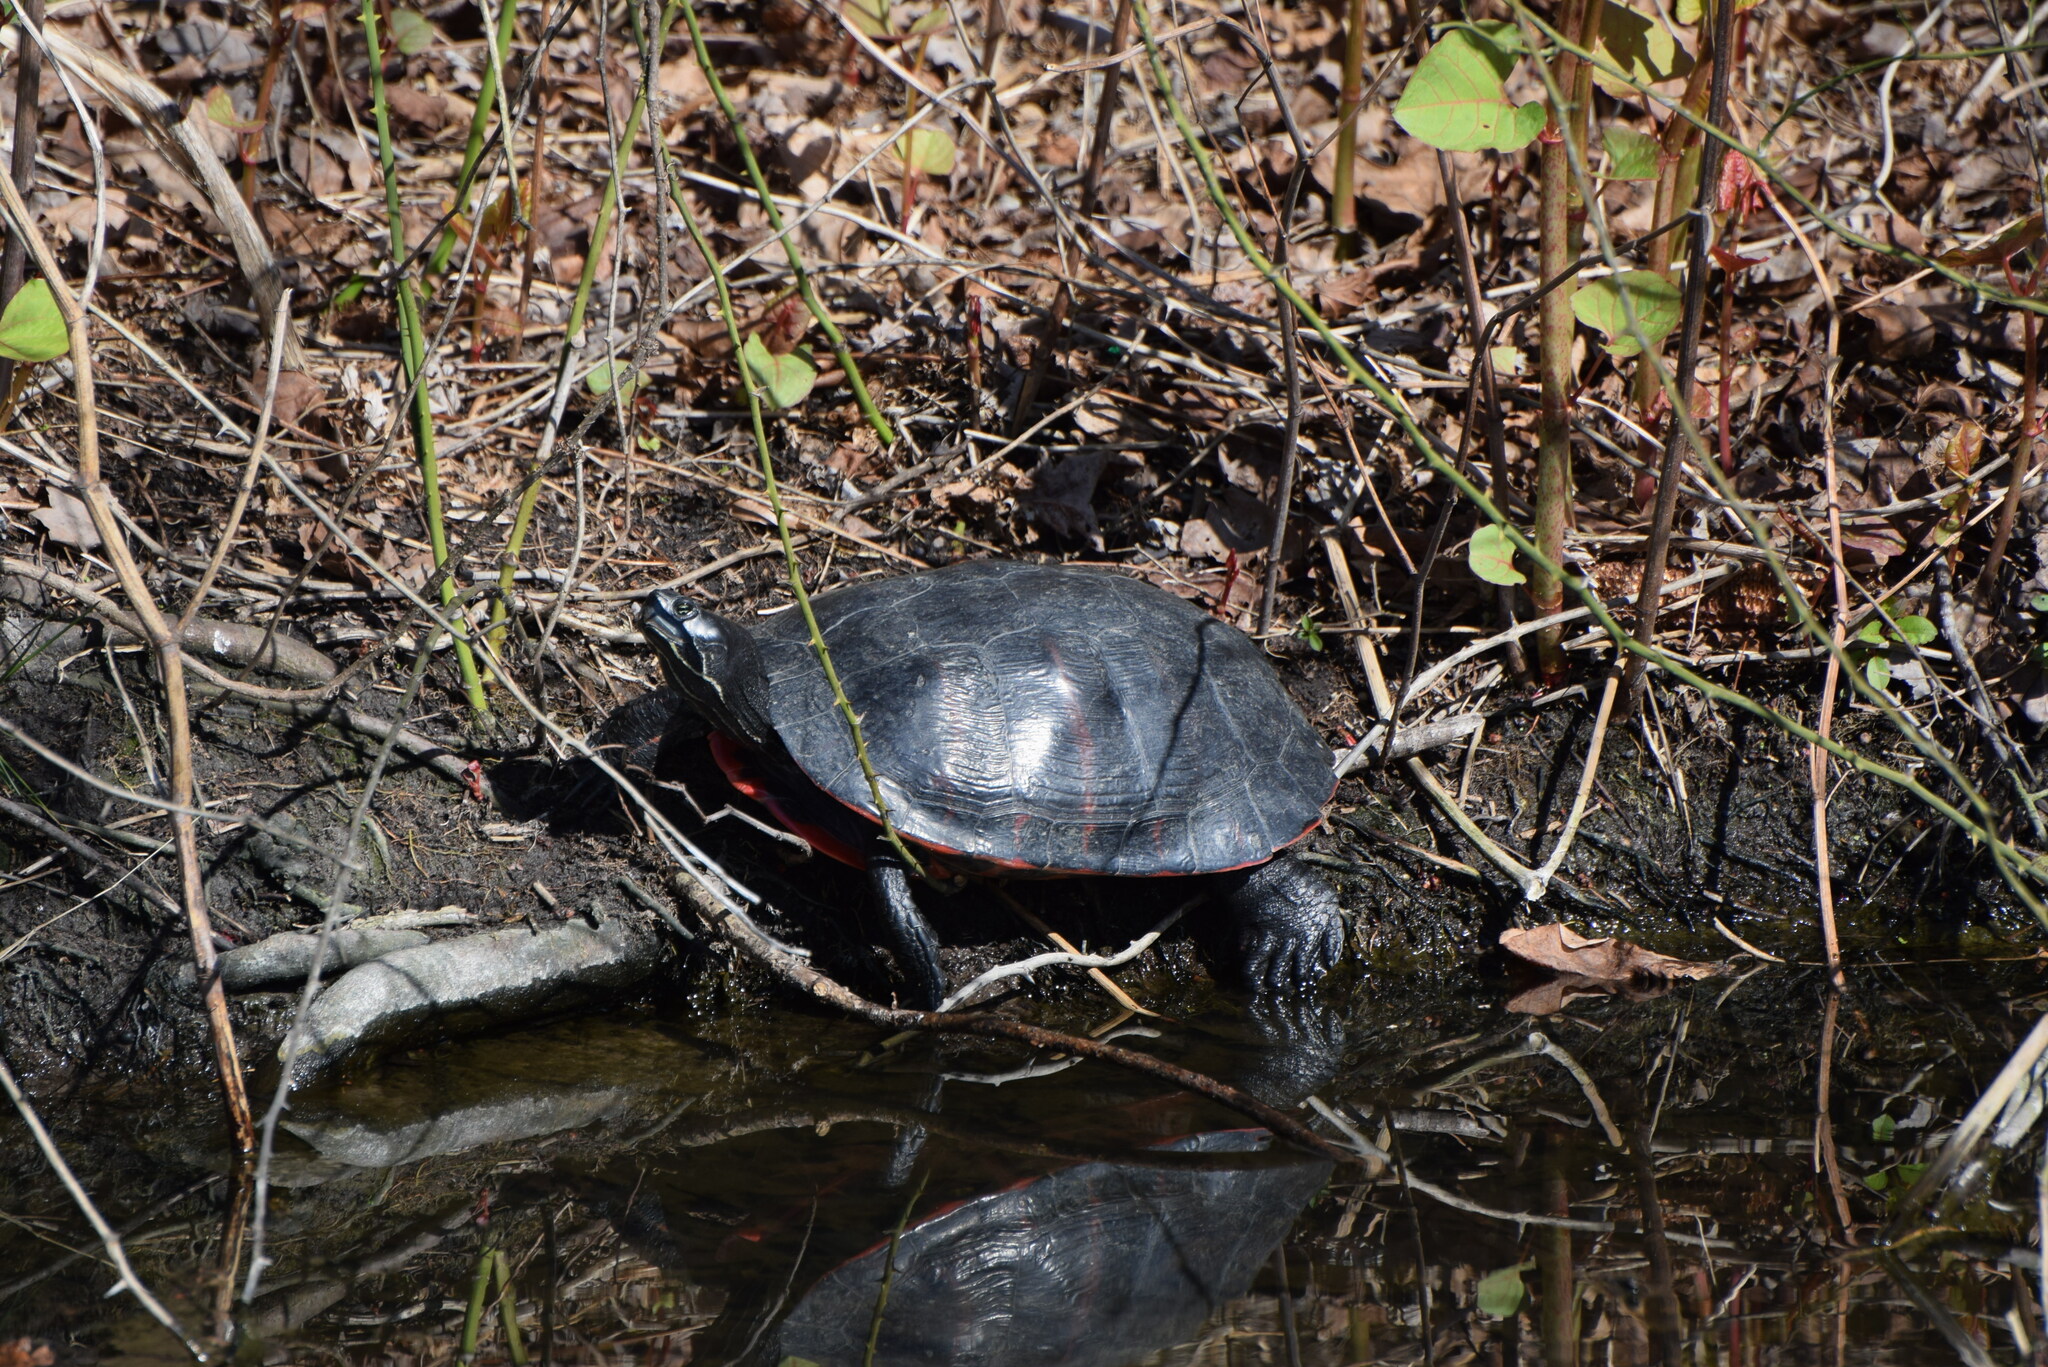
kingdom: Animalia
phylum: Chordata
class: Testudines
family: Emydidae
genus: Pseudemys
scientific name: Pseudemys rubriventris
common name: American red-bellied turtle
